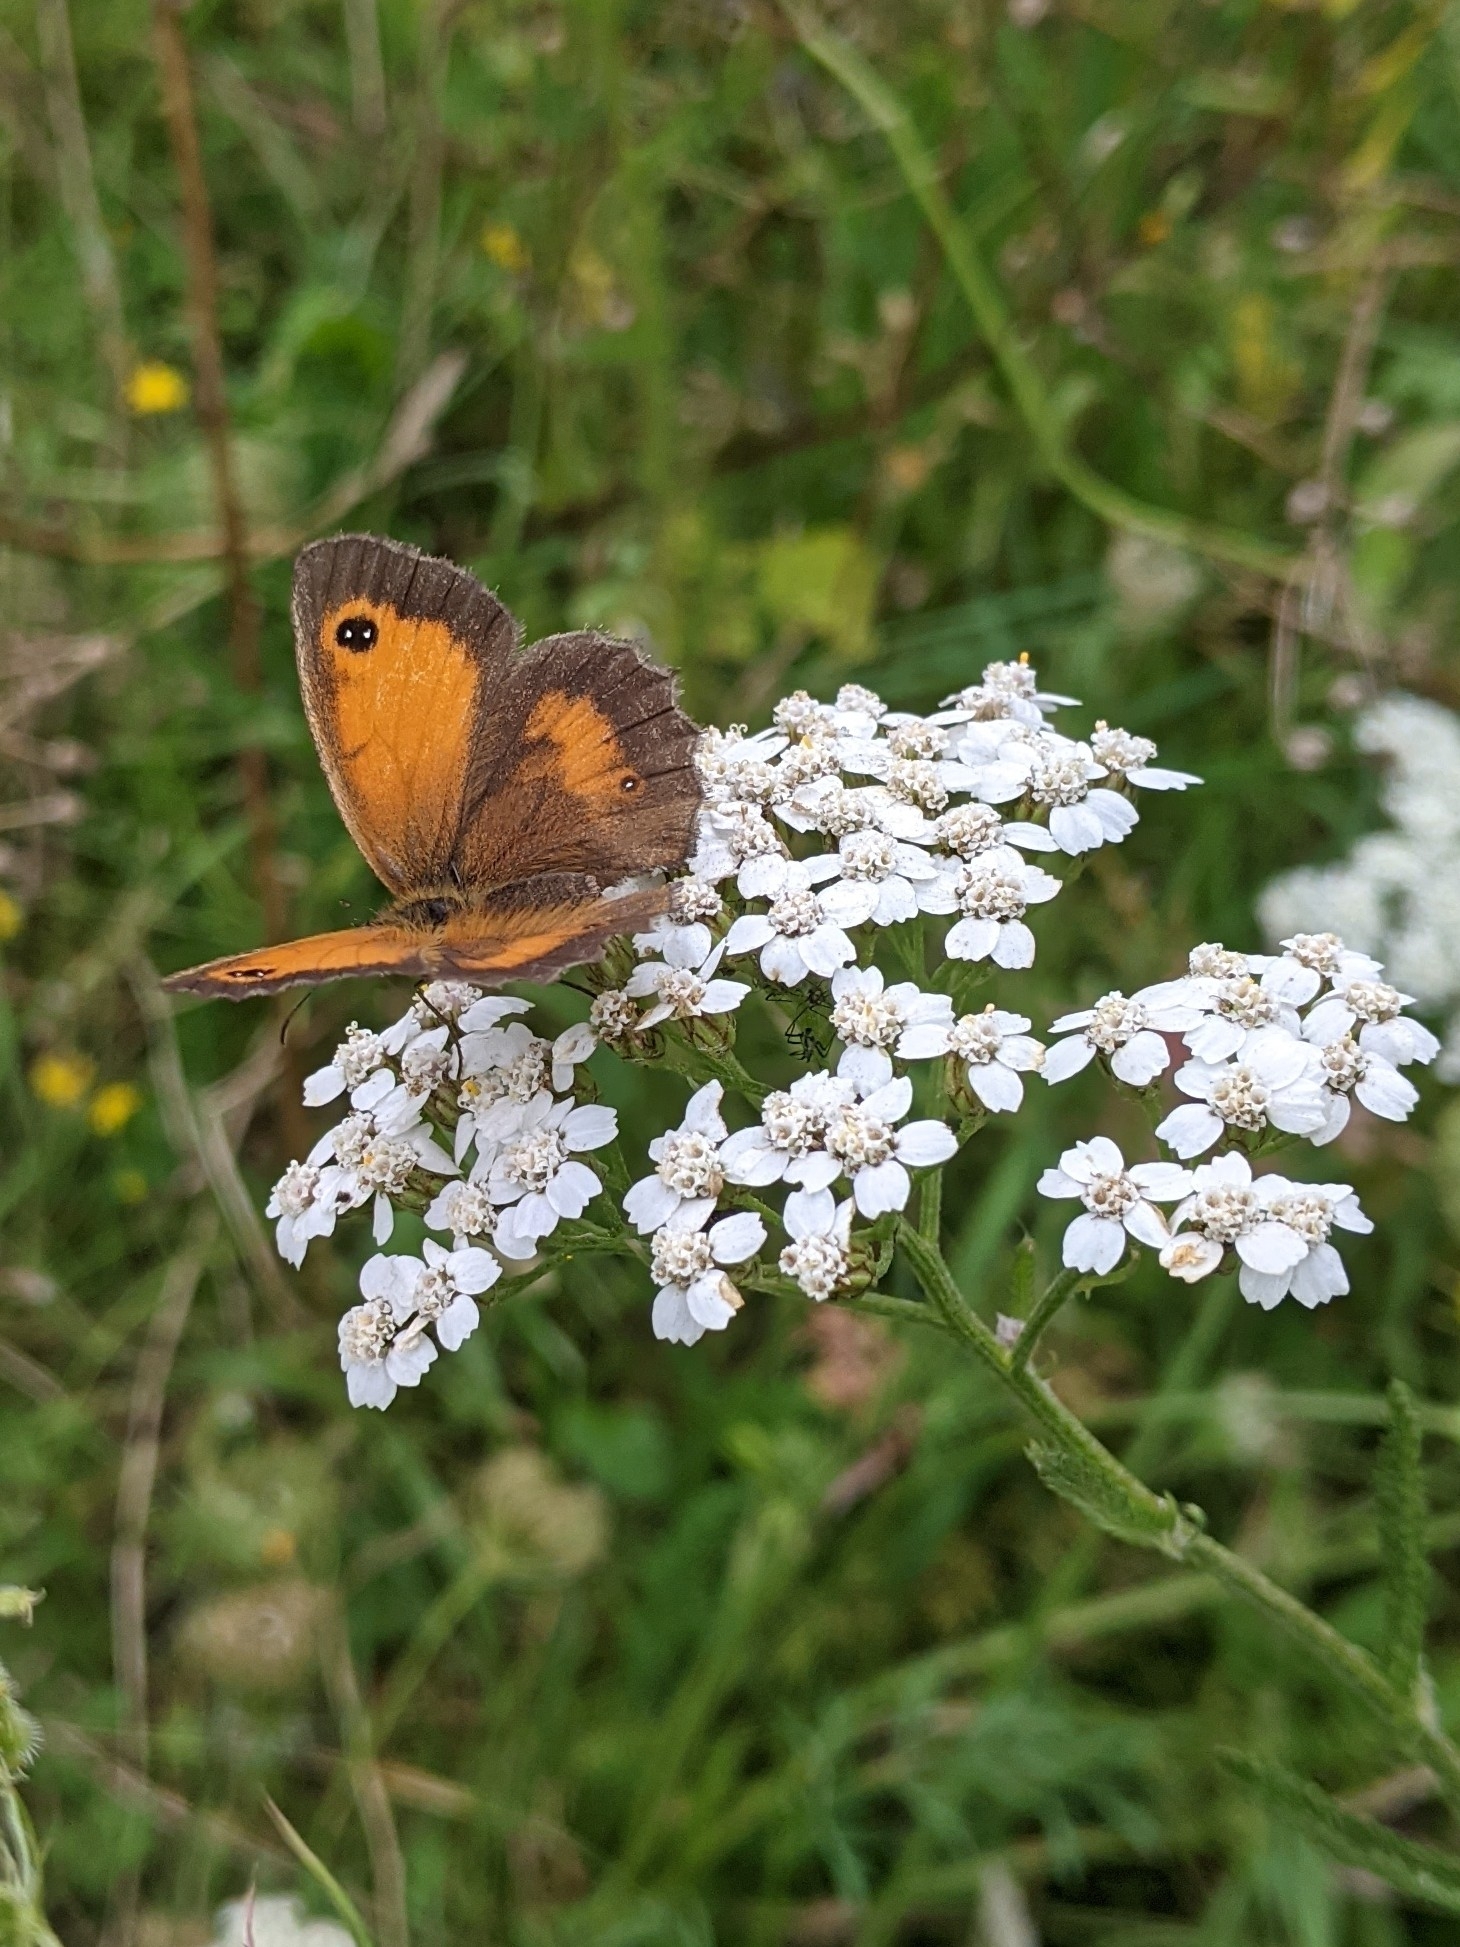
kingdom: Animalia
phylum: Arthropoda
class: Insecta
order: Lepidoptera
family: Nymphalidae
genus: Pyronia
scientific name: Pyronia tithonus
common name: Gatekeeper
